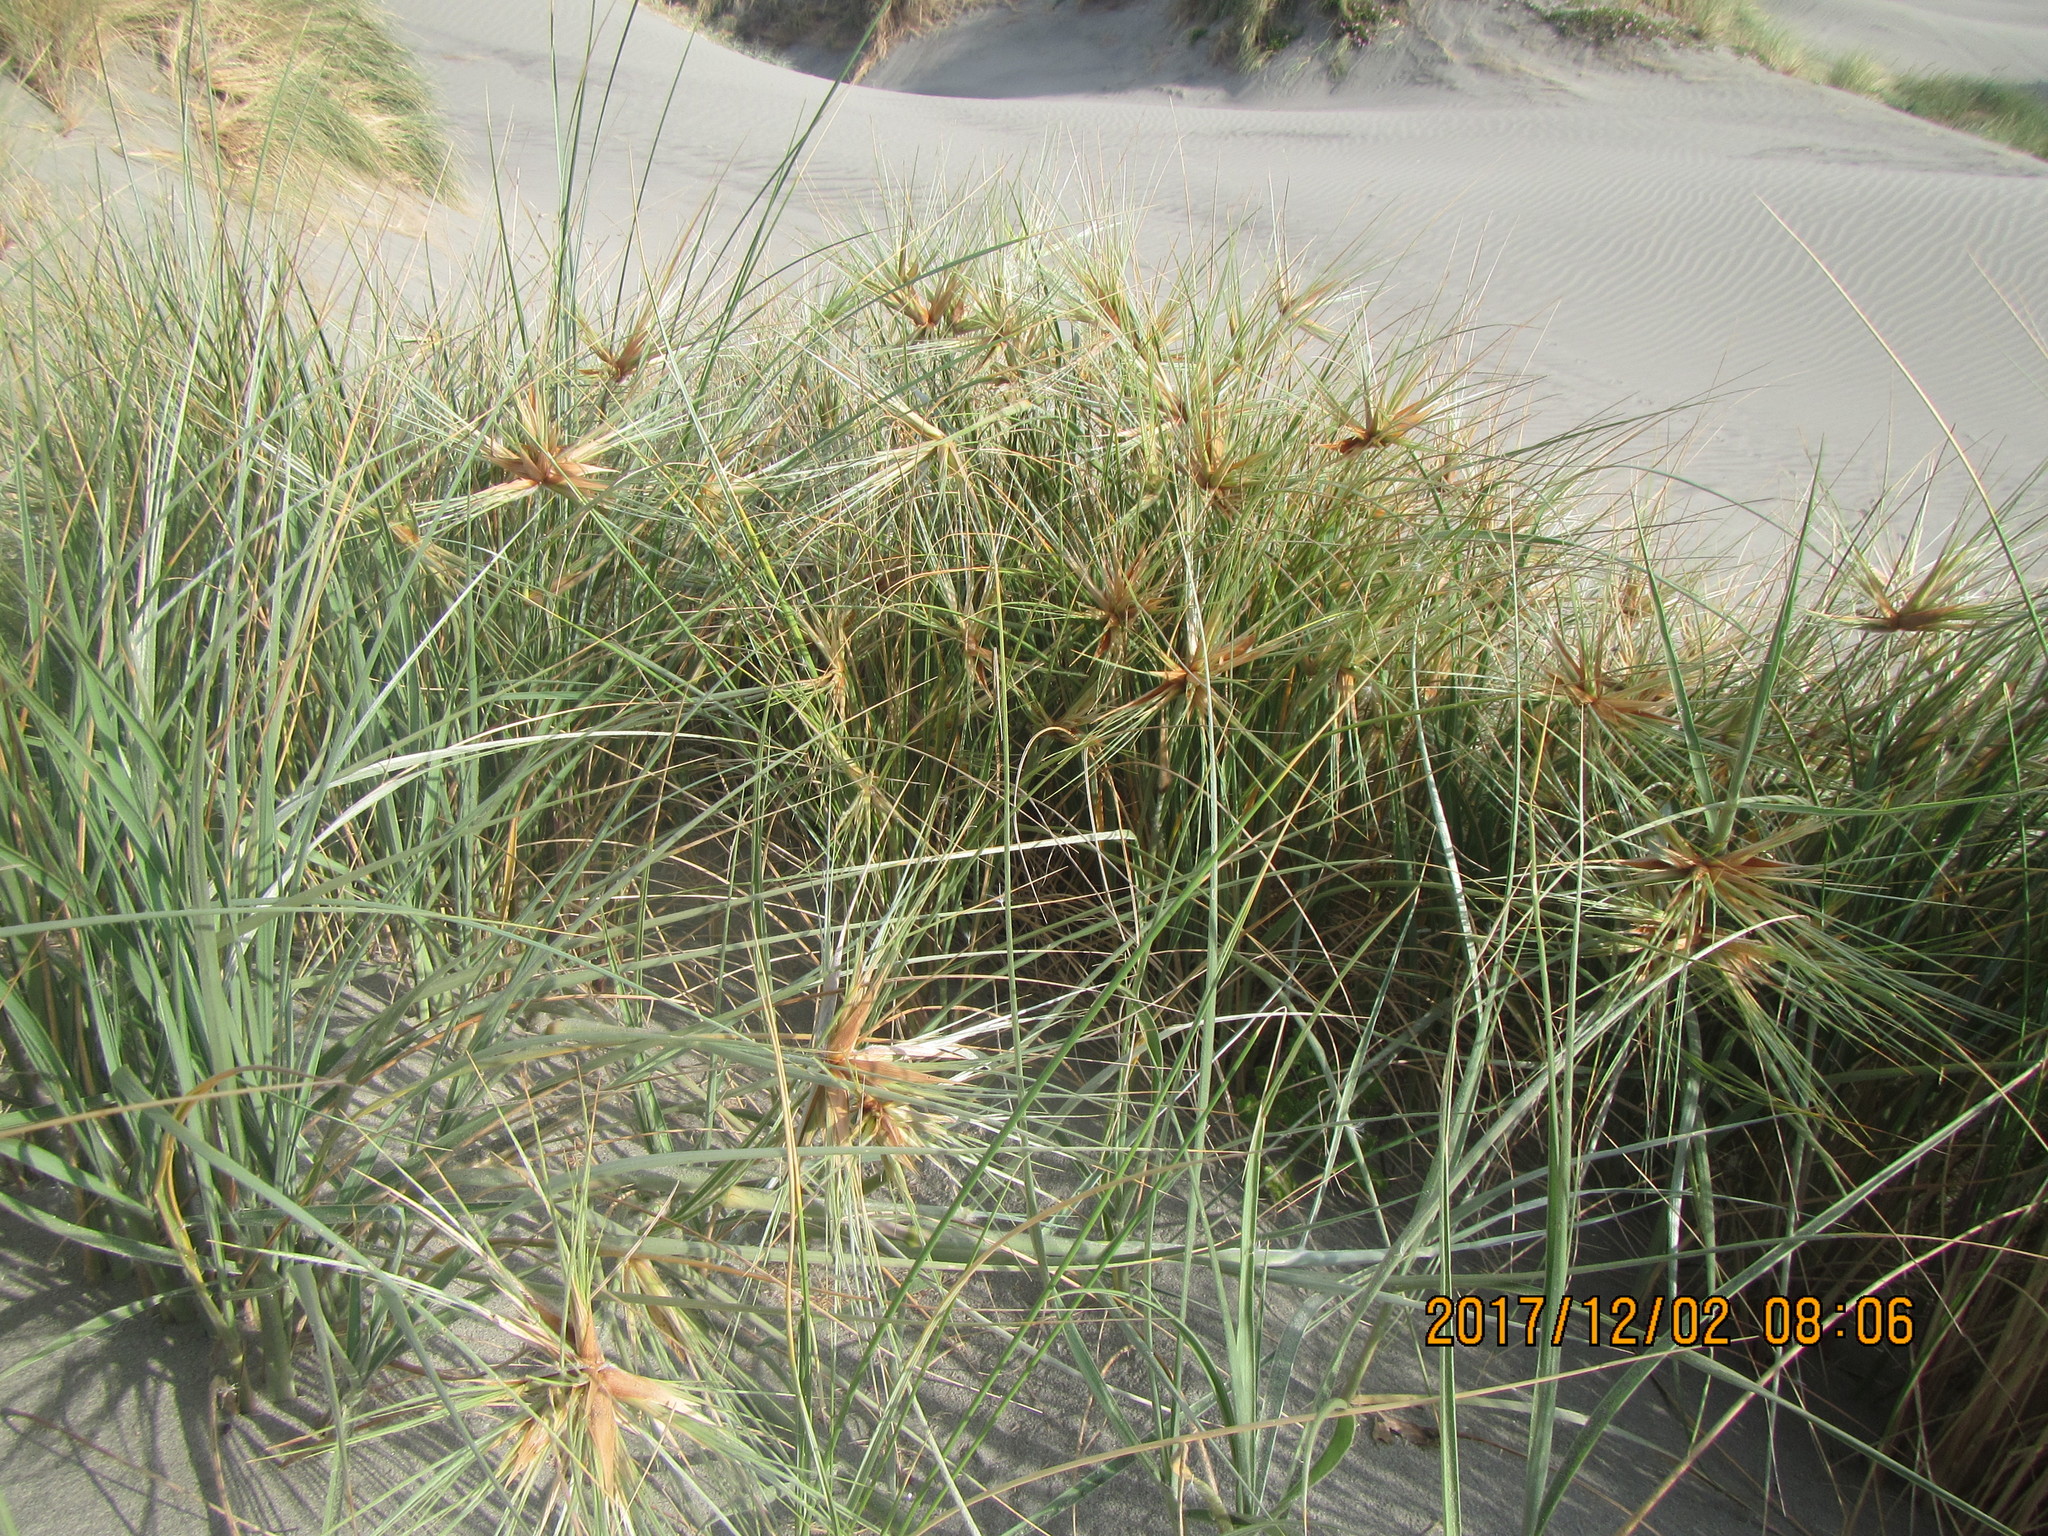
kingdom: Plantae
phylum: Tracheophyta
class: Liliopsida
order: Poales
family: Poaceae
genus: Spinifex
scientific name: Spinifex sericeus
